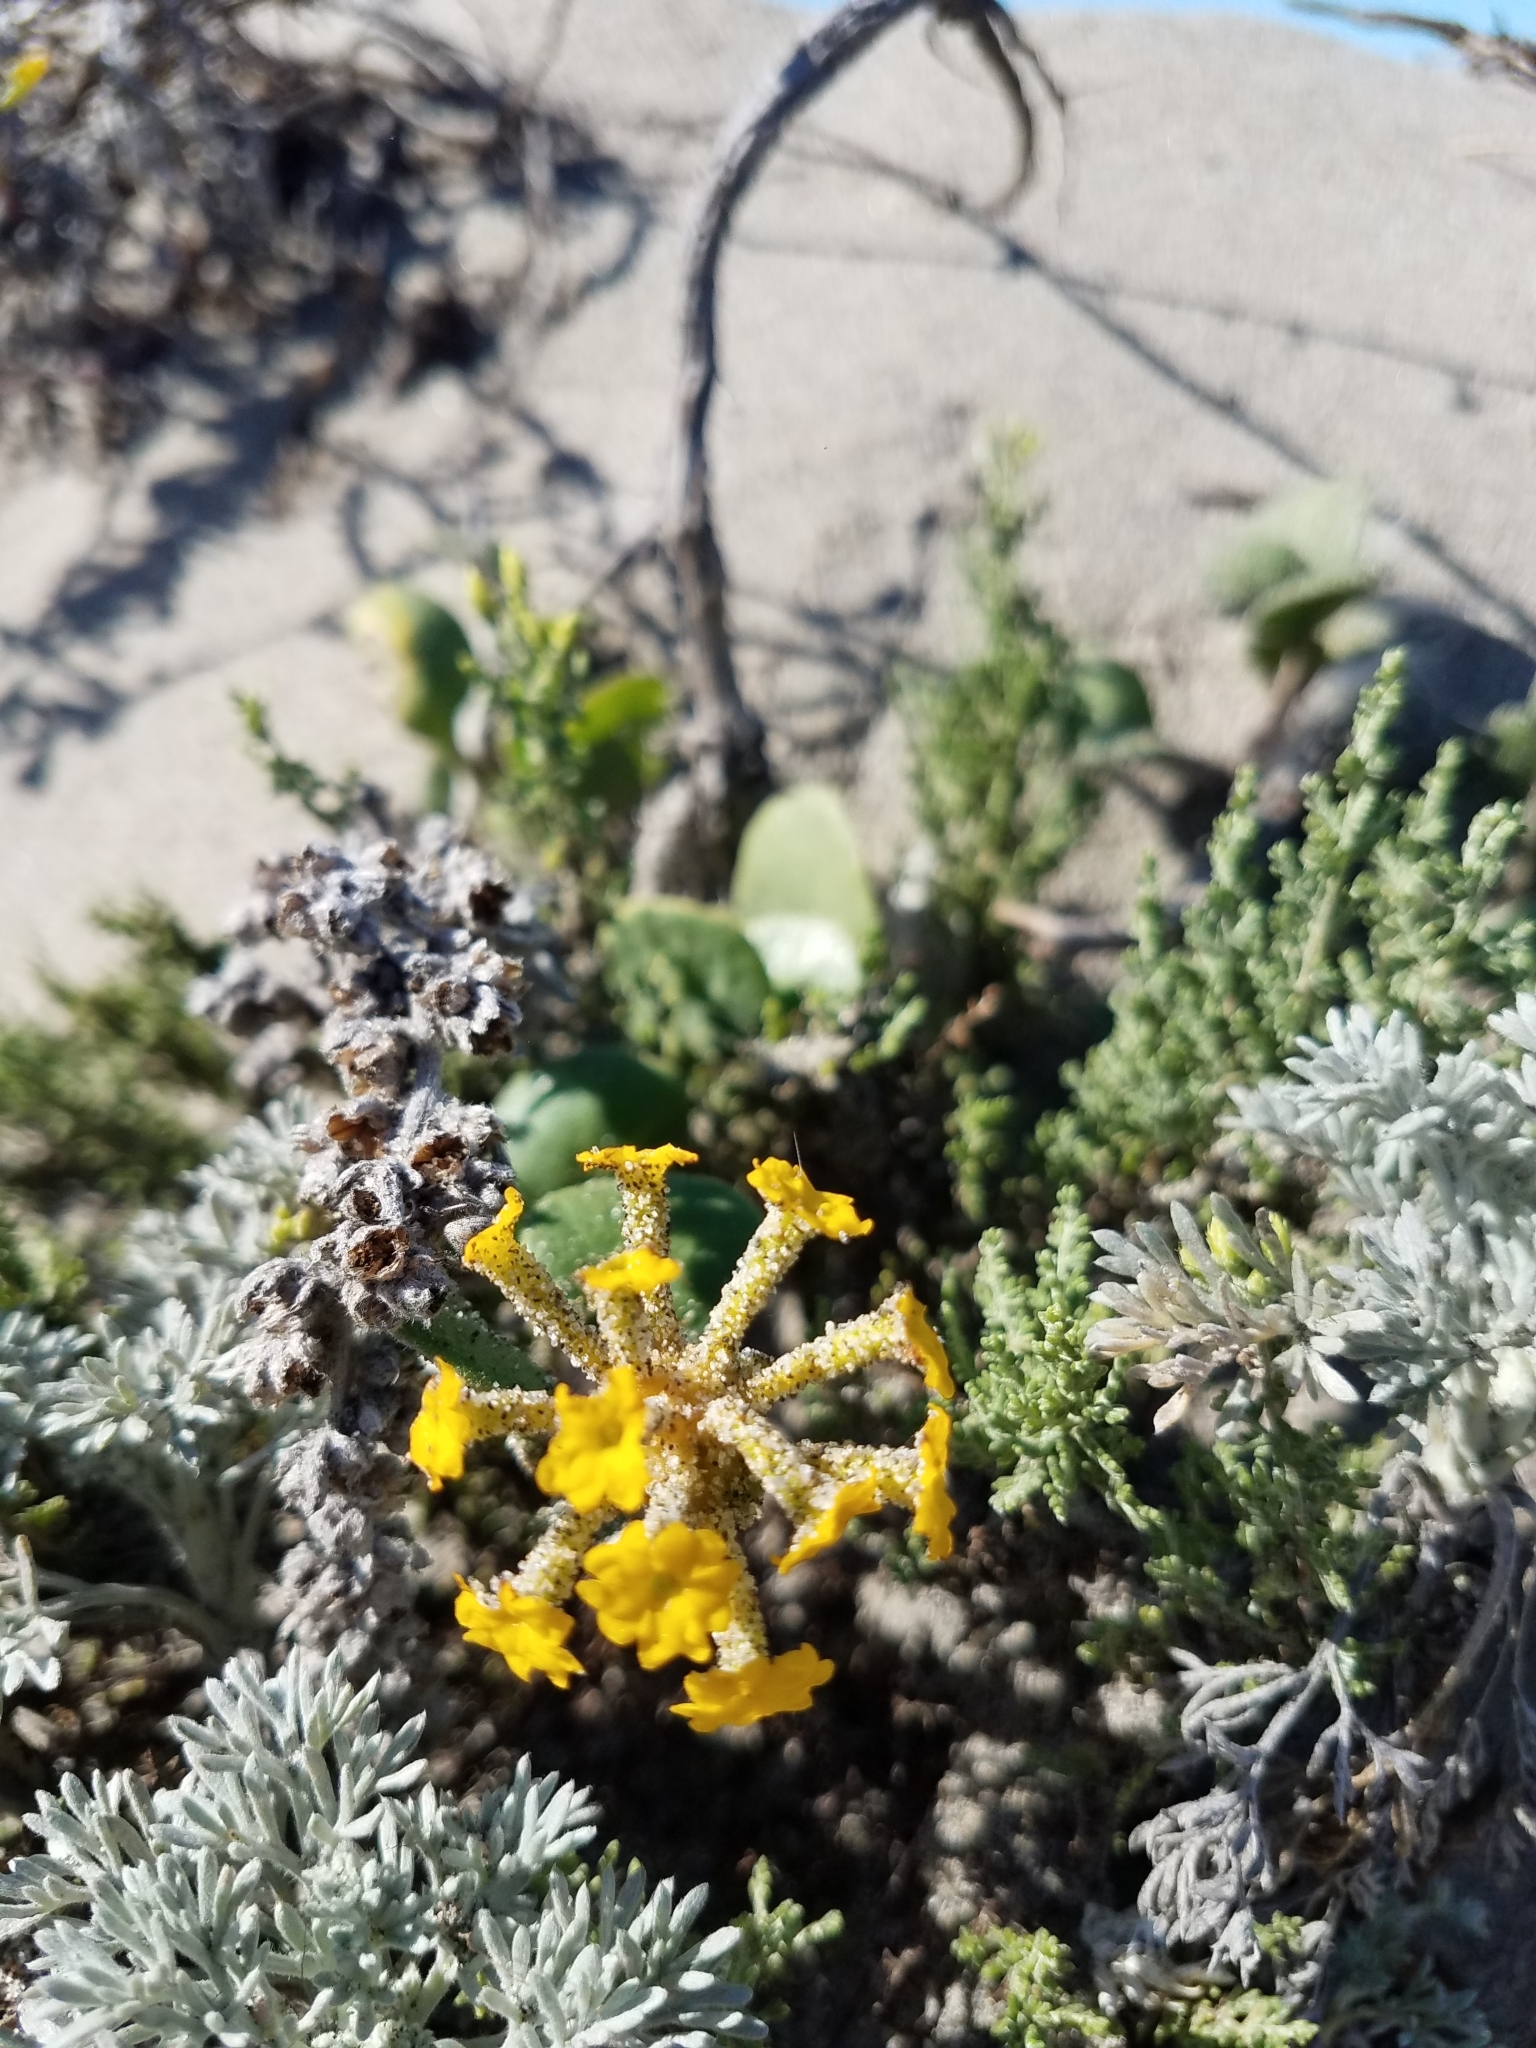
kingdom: Plantae
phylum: Tracheophyta
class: Magnoliopsida
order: Caryophyllales
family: Nyctaginaceae
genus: Abronia
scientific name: Abronia latifolia
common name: Yellow sand-verbena
